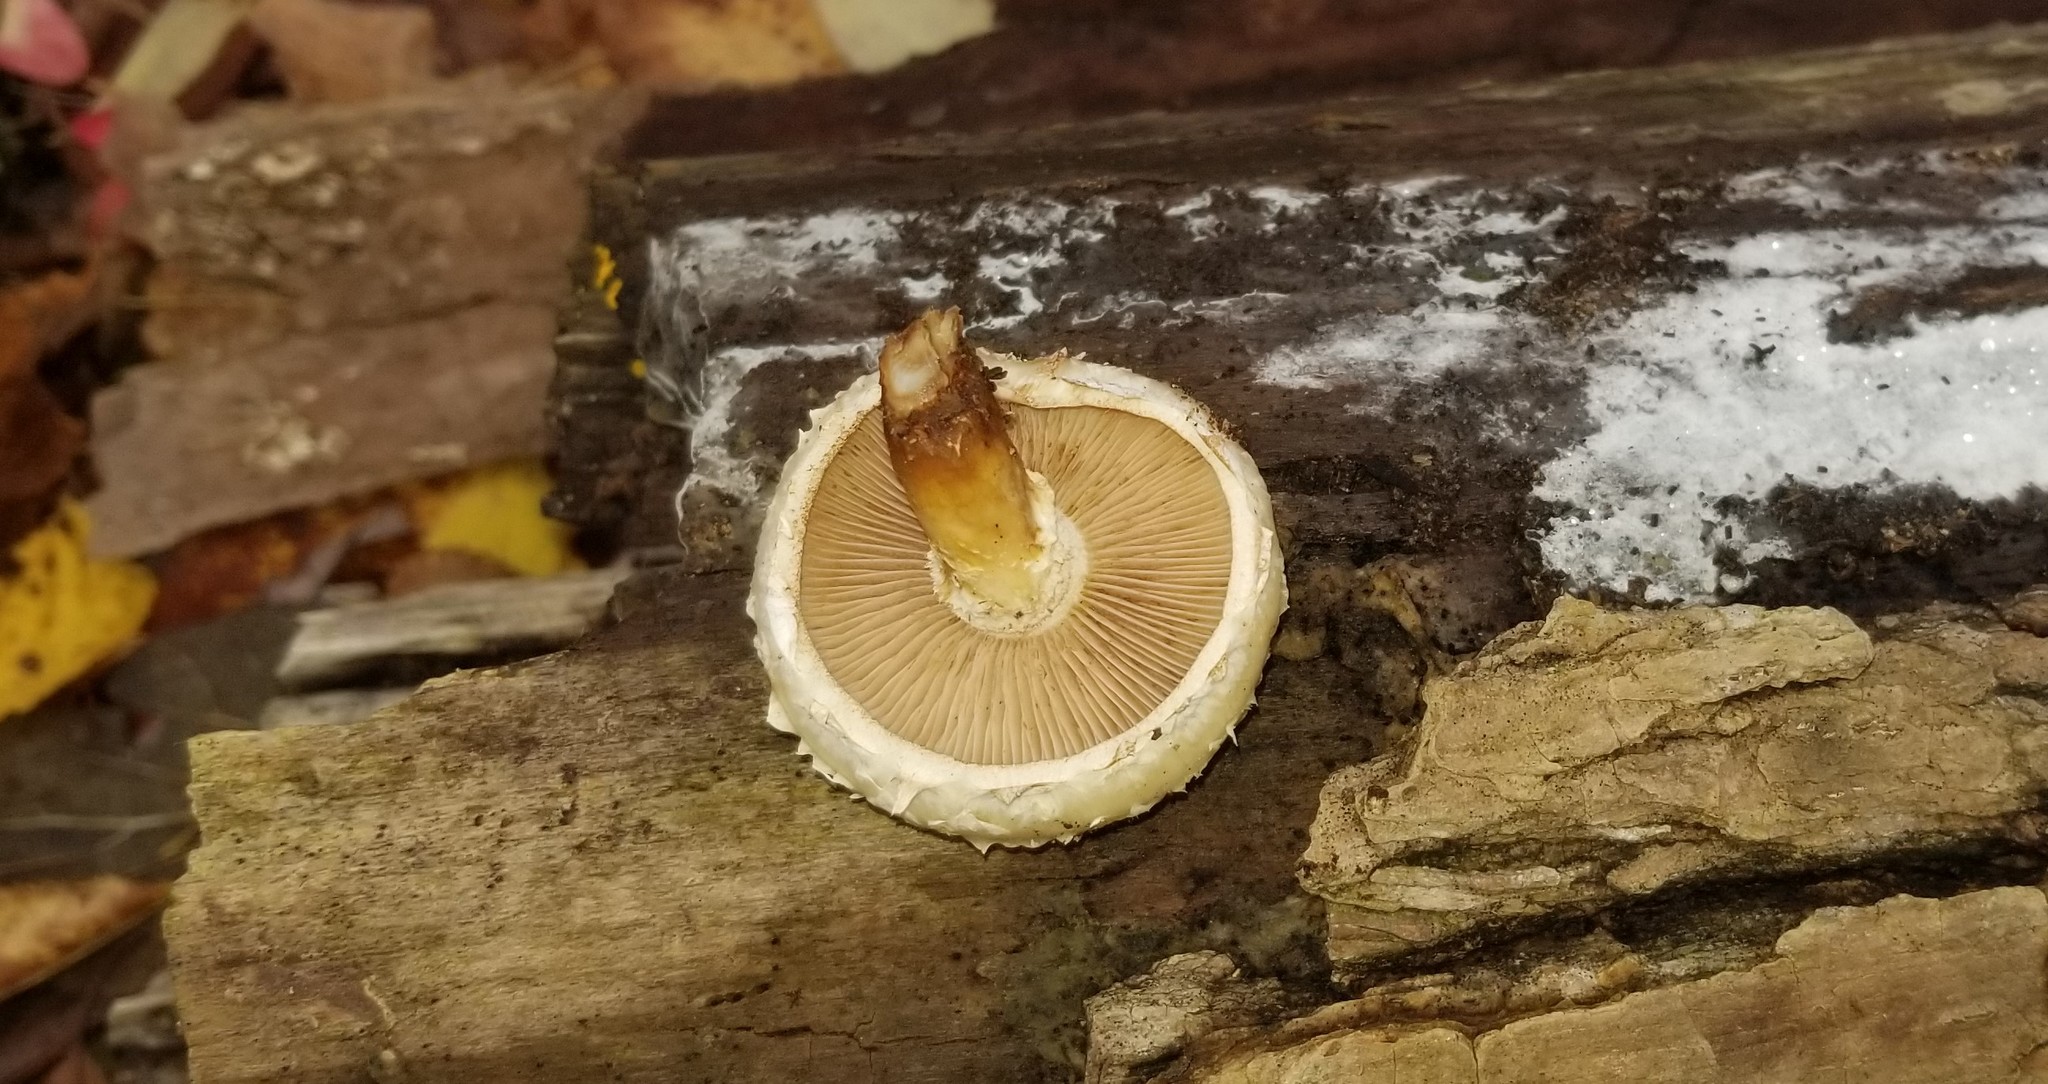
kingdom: Fungi
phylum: Basidiomycota
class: Agaricomycetes
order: Agaricales
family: Strophariaceae
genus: Pholiota
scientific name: Pholiota populnea
